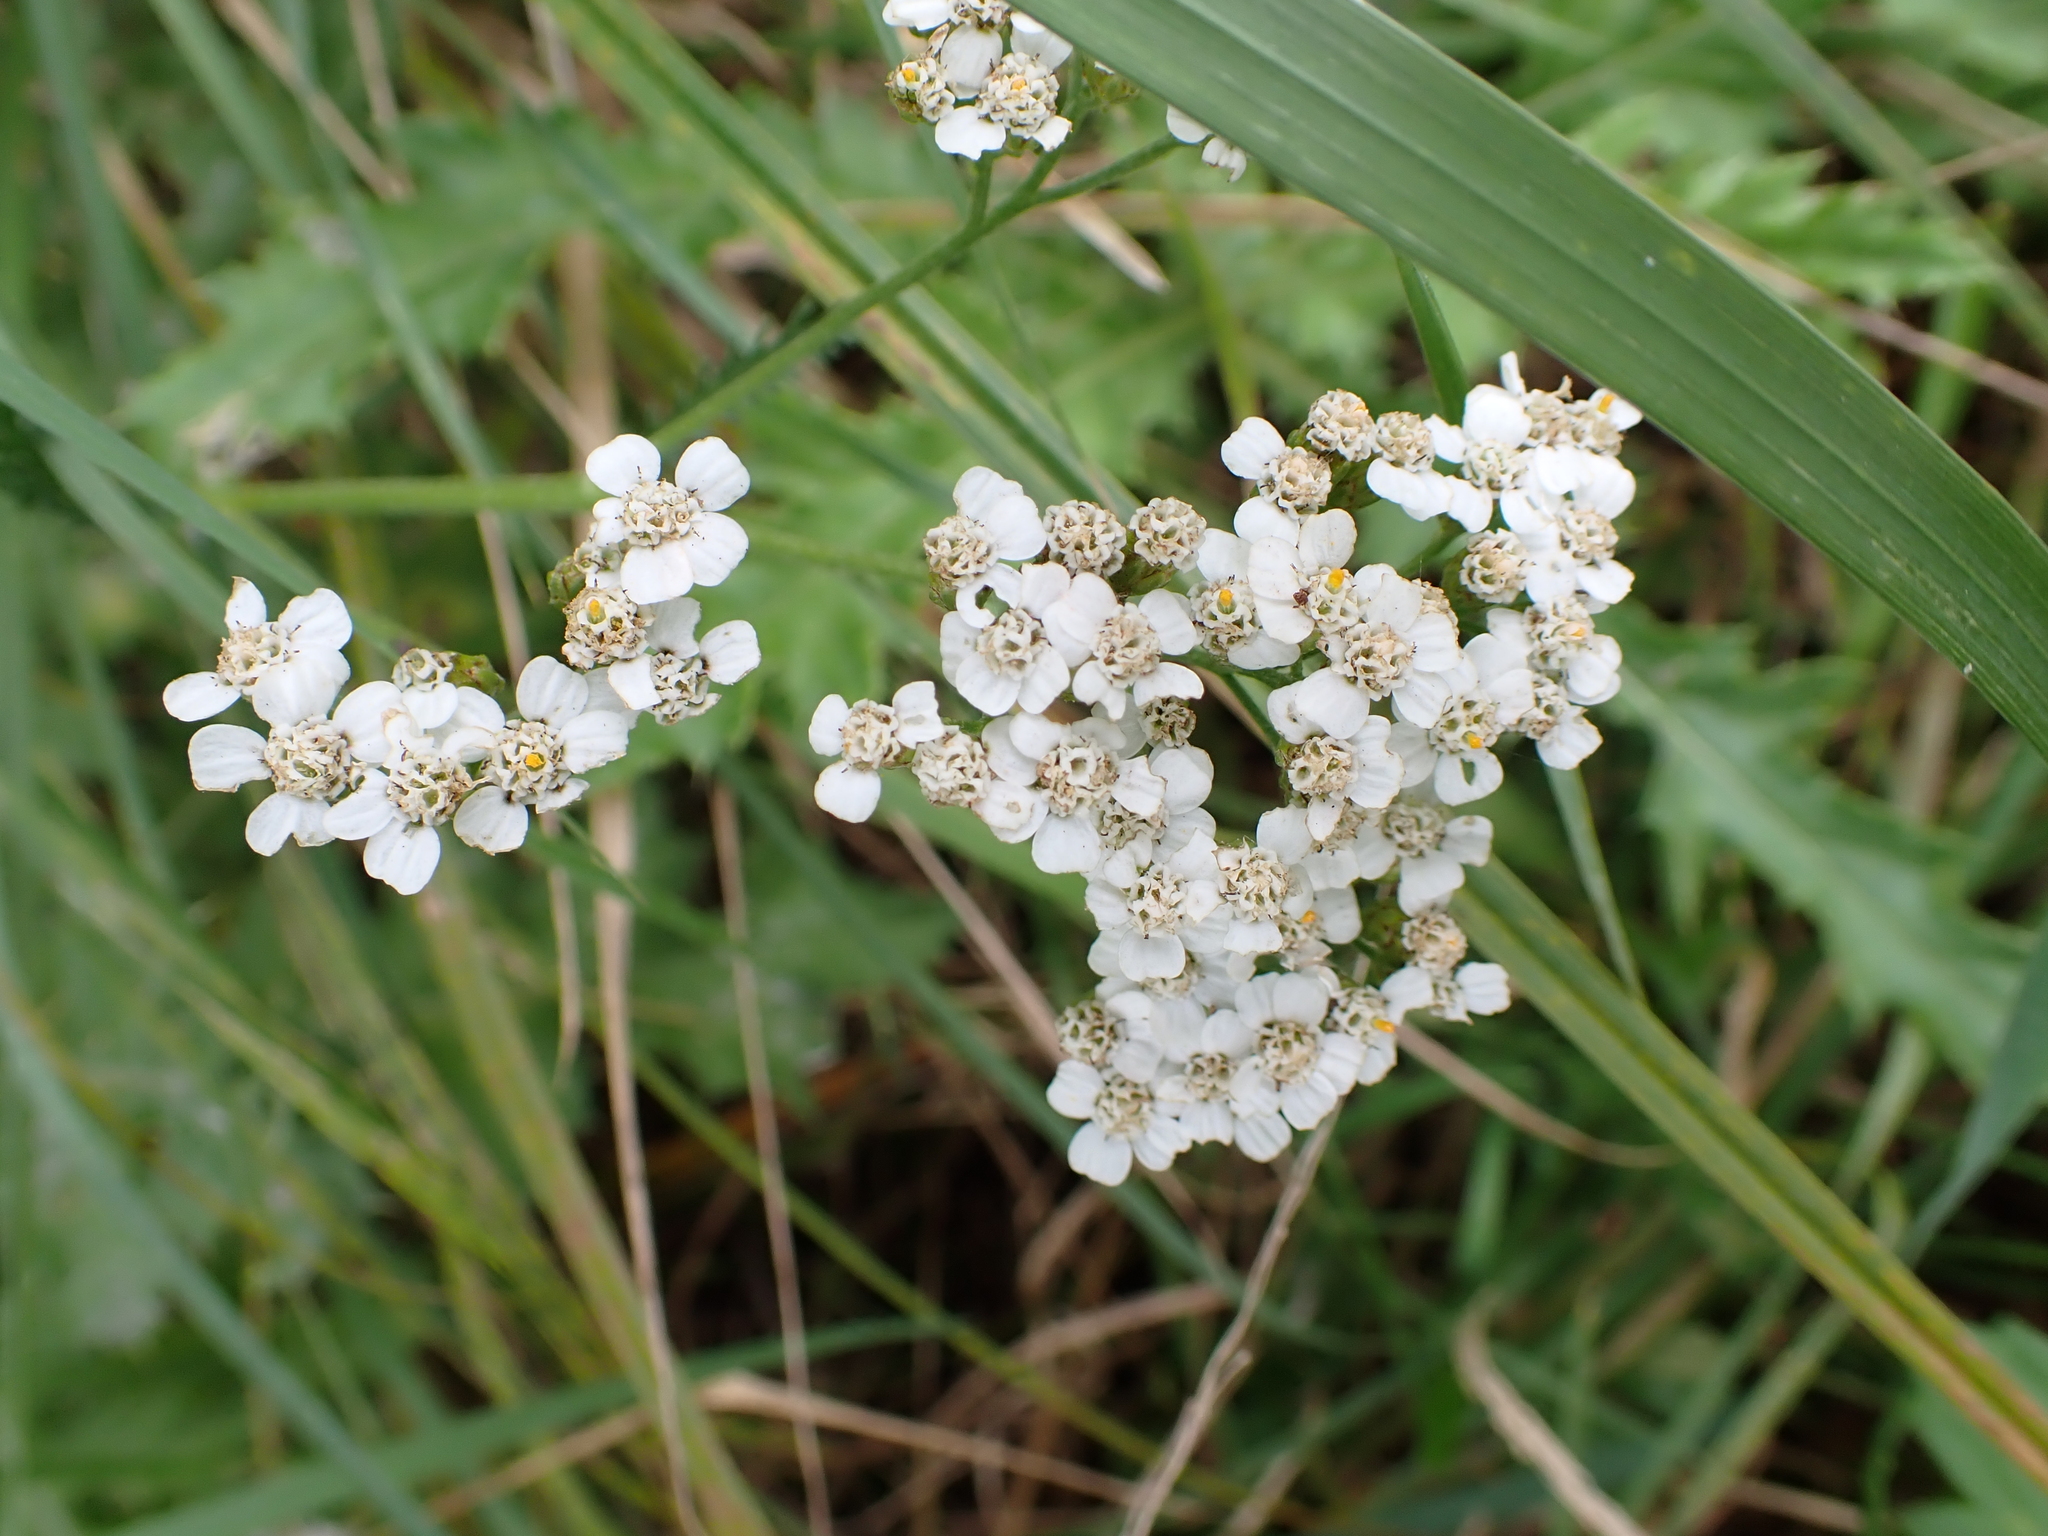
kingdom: Plantae
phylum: Tracheophyta
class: Magnoliopsida
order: Asterales
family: Asteraceae
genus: Achillea
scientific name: Achillea millefolium
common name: Yarrow
